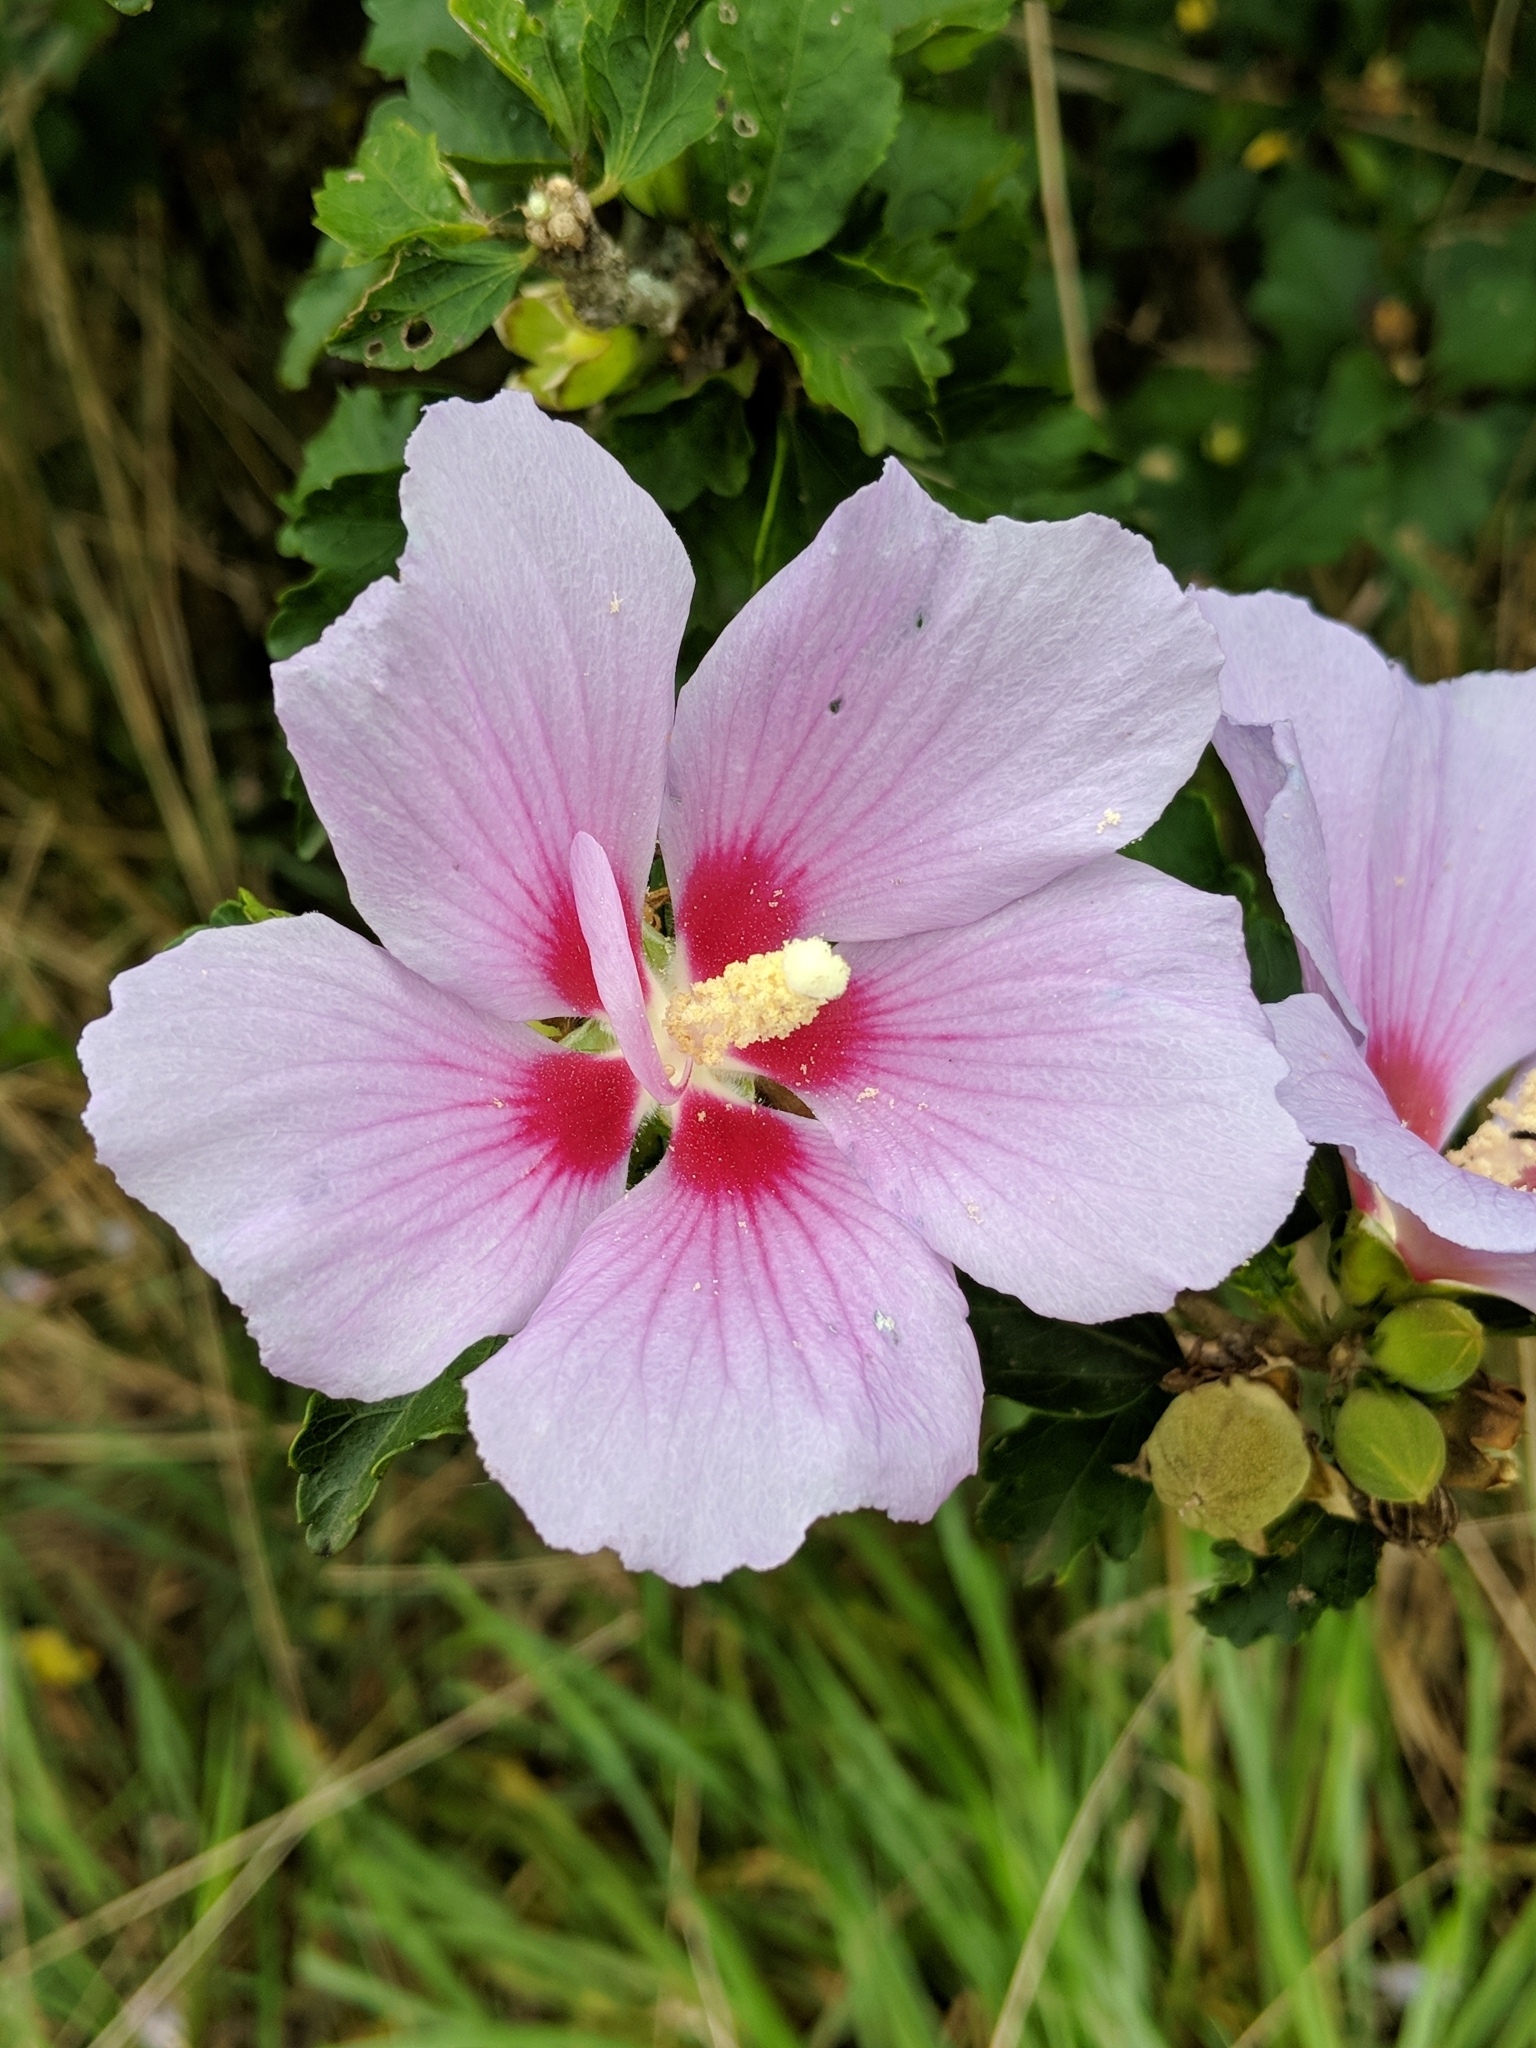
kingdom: Plantae
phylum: Tracheophyta
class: Magnoliopsida
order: Malvales
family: Malvaceae
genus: Hibiscus
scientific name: Hibiscus syriacus
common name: Syrian ketmia
